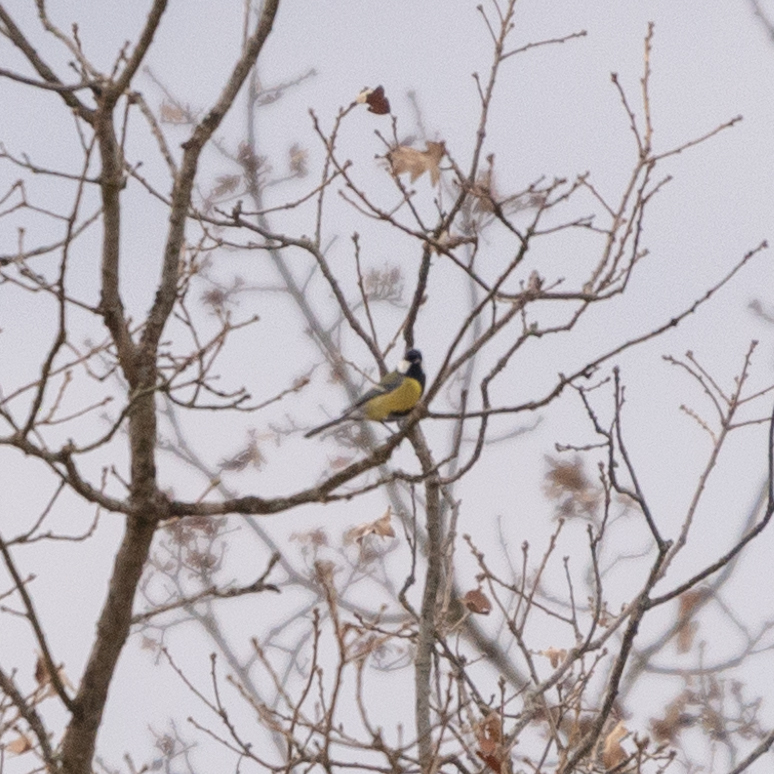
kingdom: Animalia
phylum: Chordata
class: Aves
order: Passeriformes
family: Paridae
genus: Parus
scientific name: Parus major
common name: Great tit
